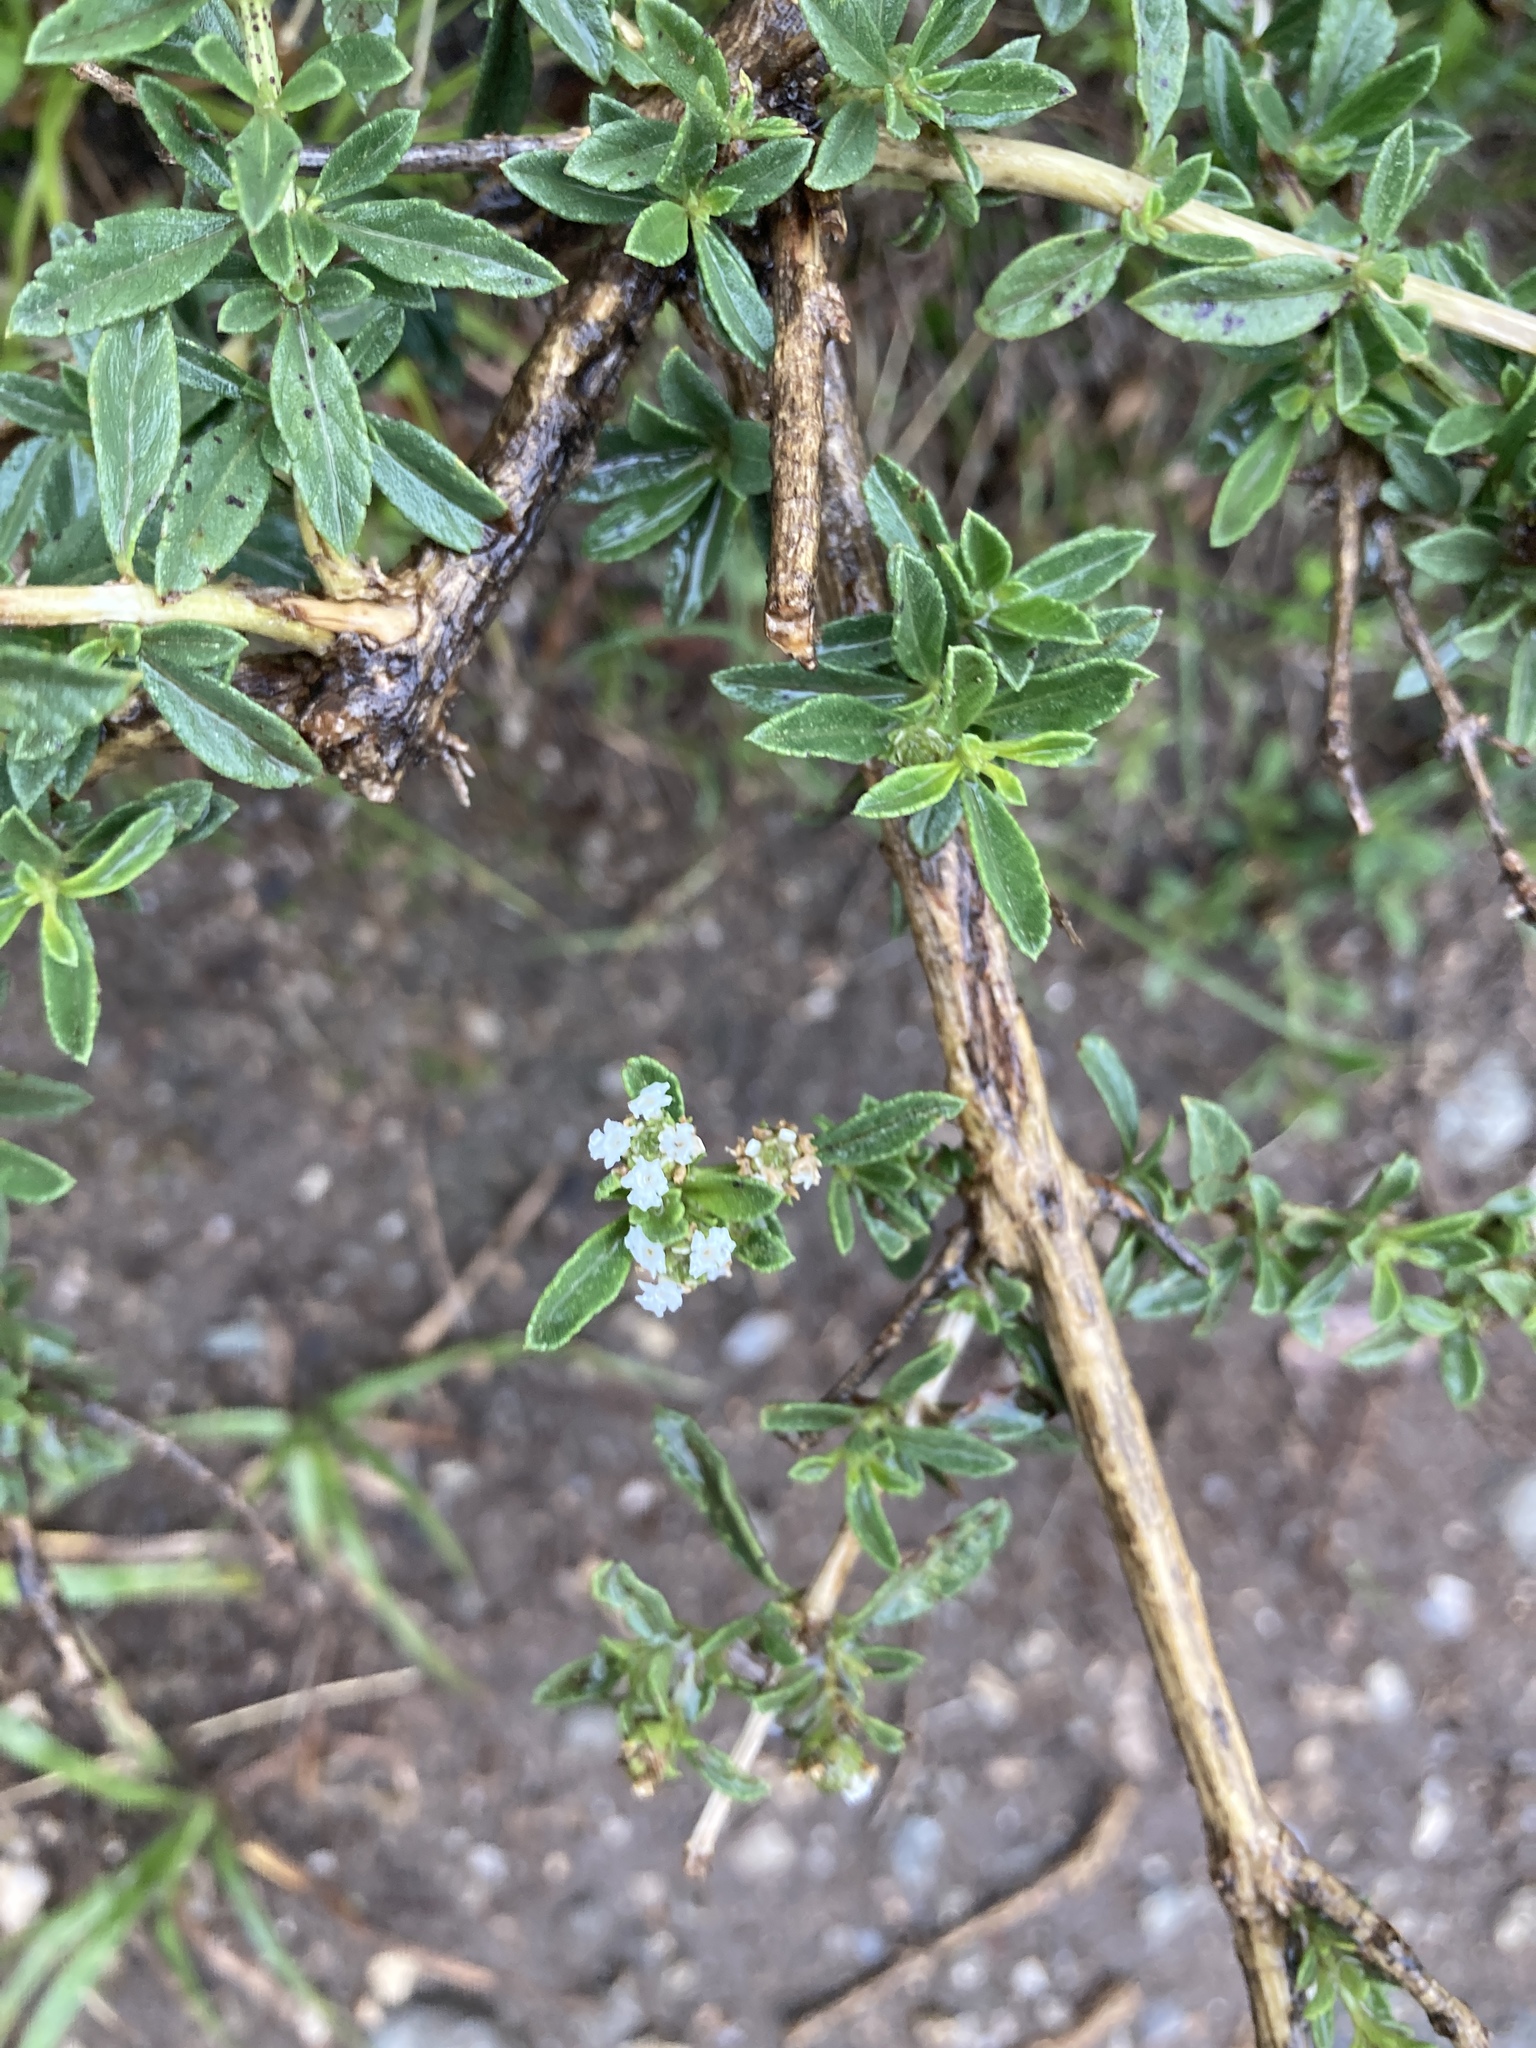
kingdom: Plantae
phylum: Tracheophyta
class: Magnoliopsida
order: Lamiales
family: Verbenaceae
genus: Lippia
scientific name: Lippia turbinata
